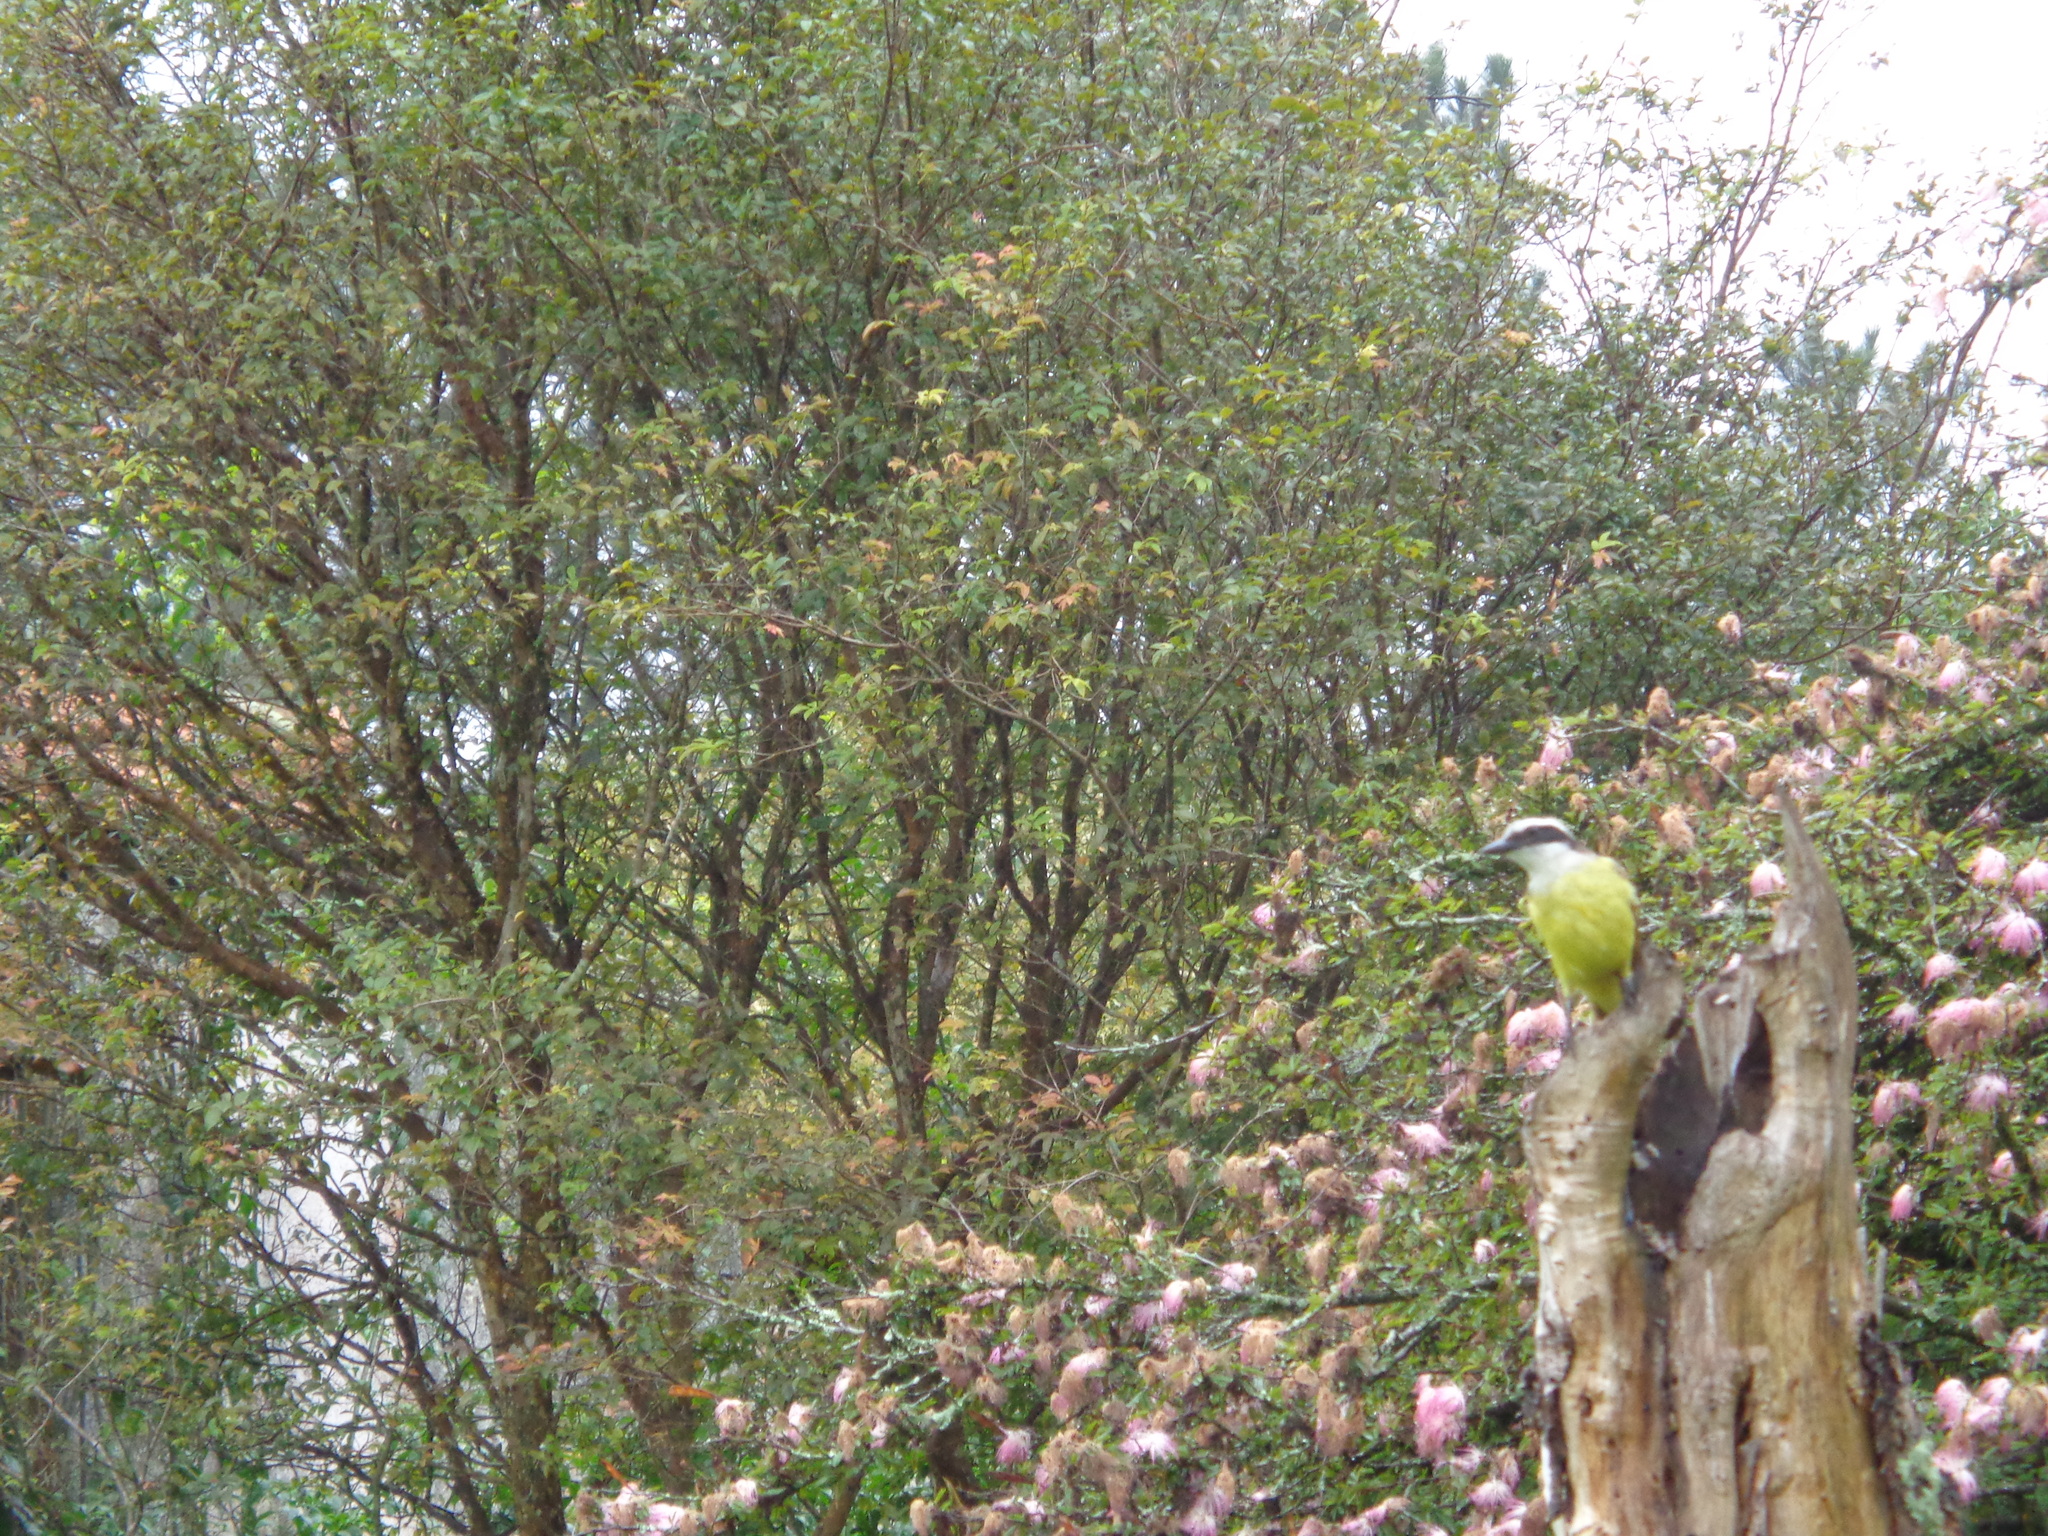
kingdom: Animalia
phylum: Chordata
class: Aves
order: Passeriformes
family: Tyrannidae
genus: Pitangus
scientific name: Pitangus sulphuratus
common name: Great kiskadee
